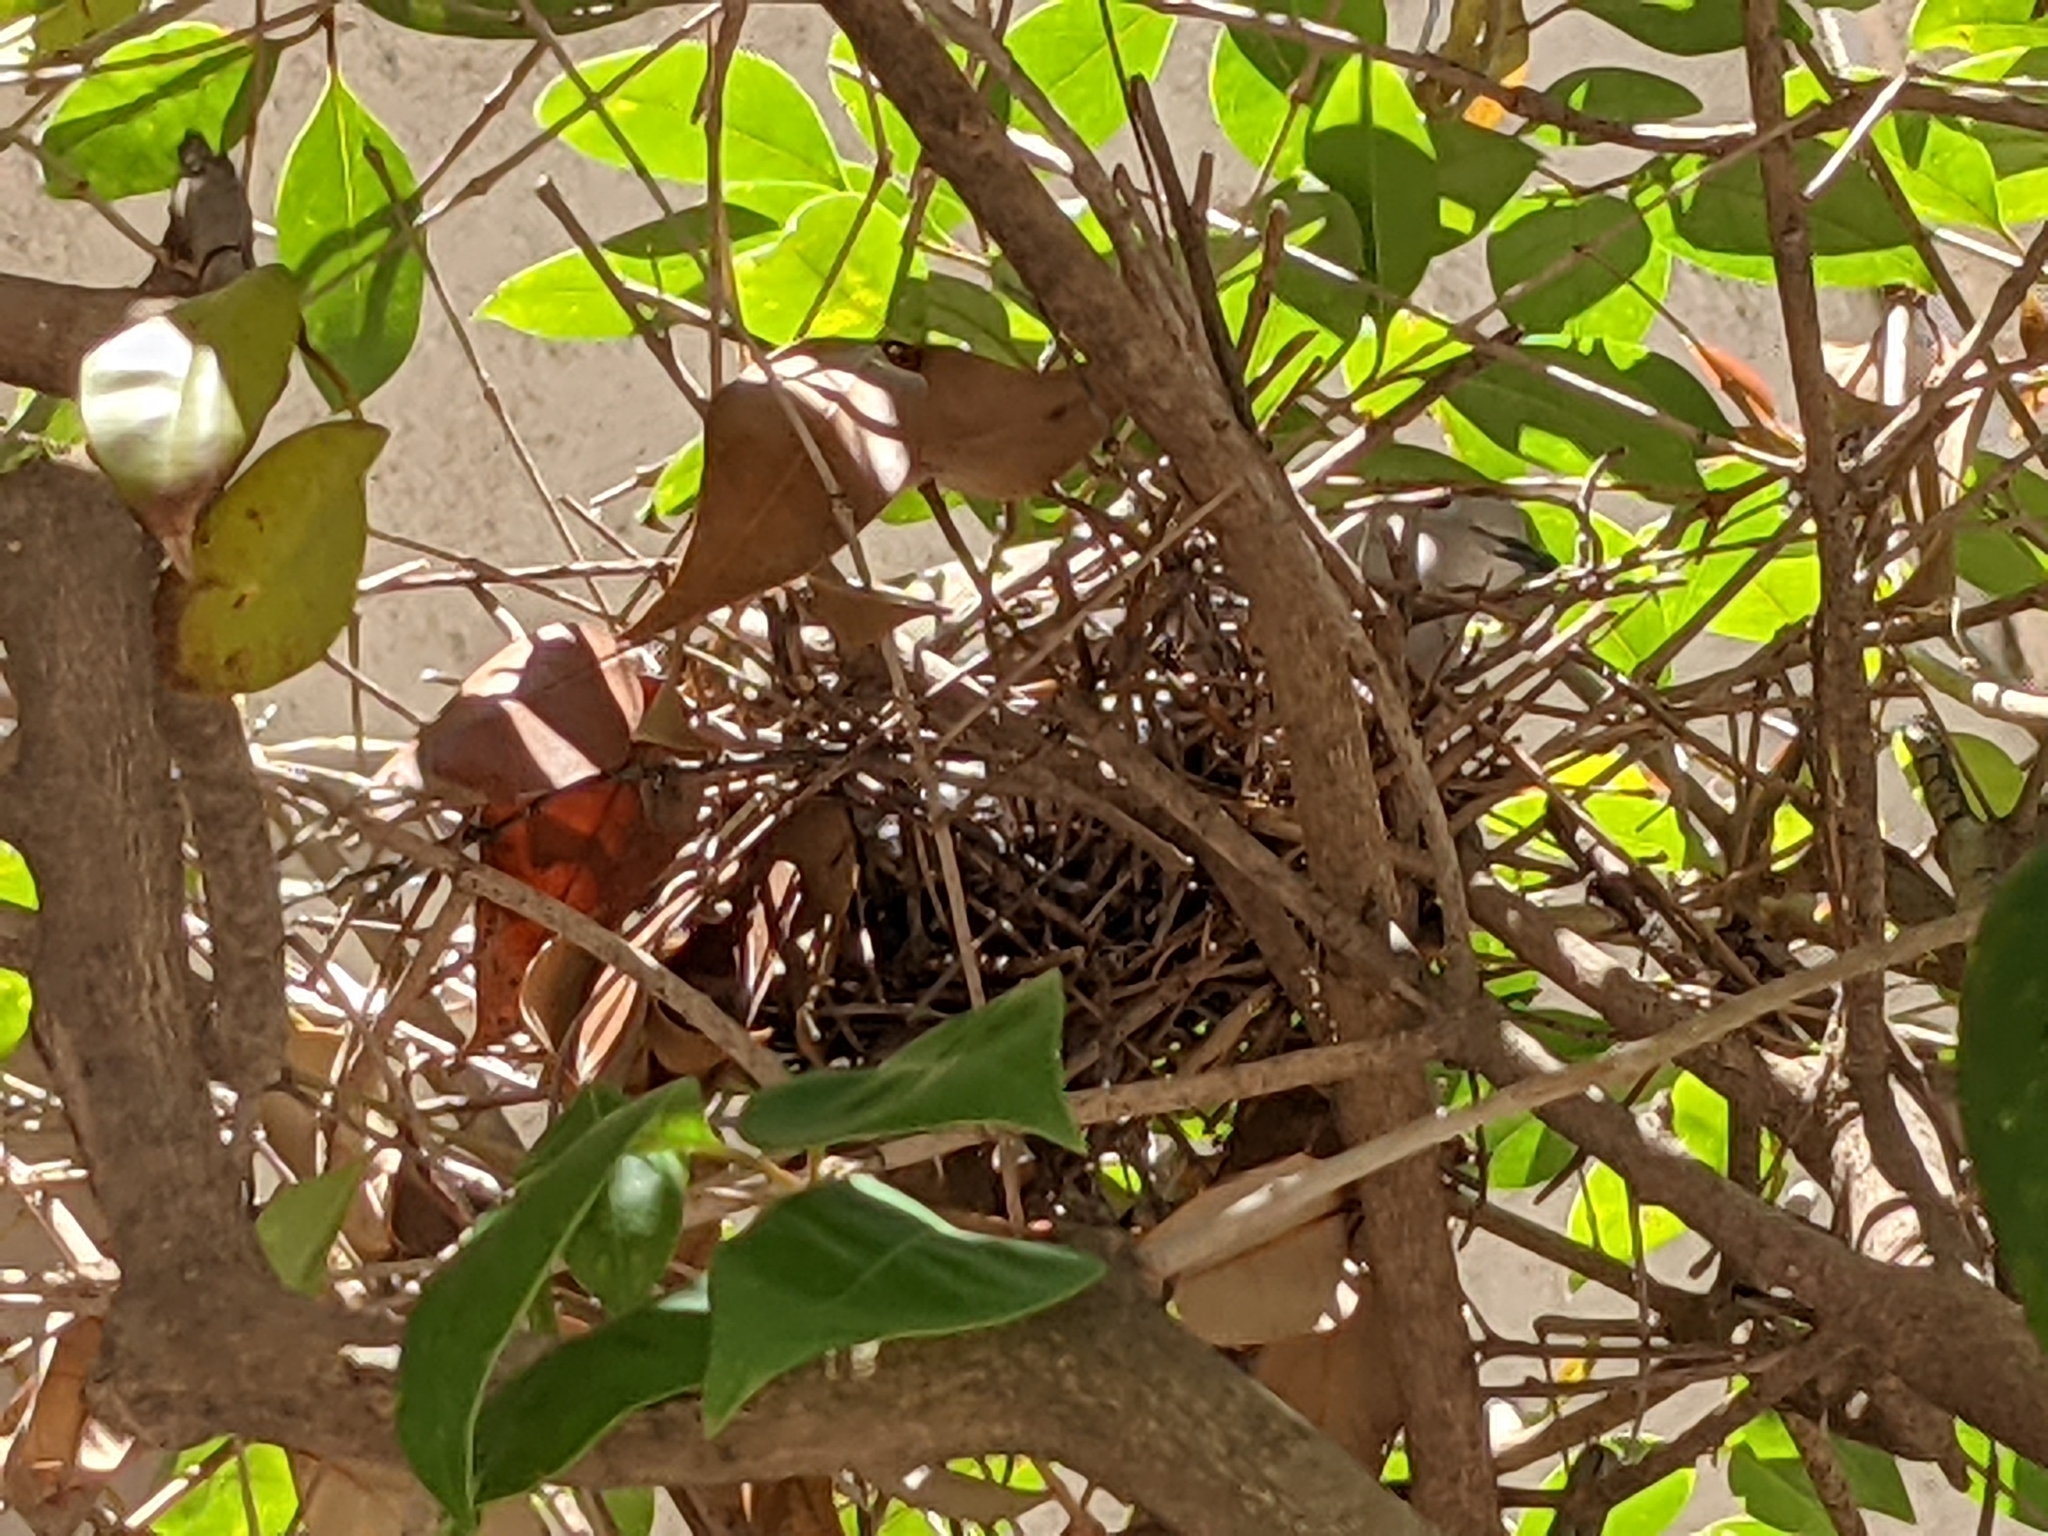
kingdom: Animalia
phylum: Chordata
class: Aves
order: Columbiformes
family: Columbidae
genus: Streptopelia
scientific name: Streptopelia decaocto
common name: Eurasian collared dove
